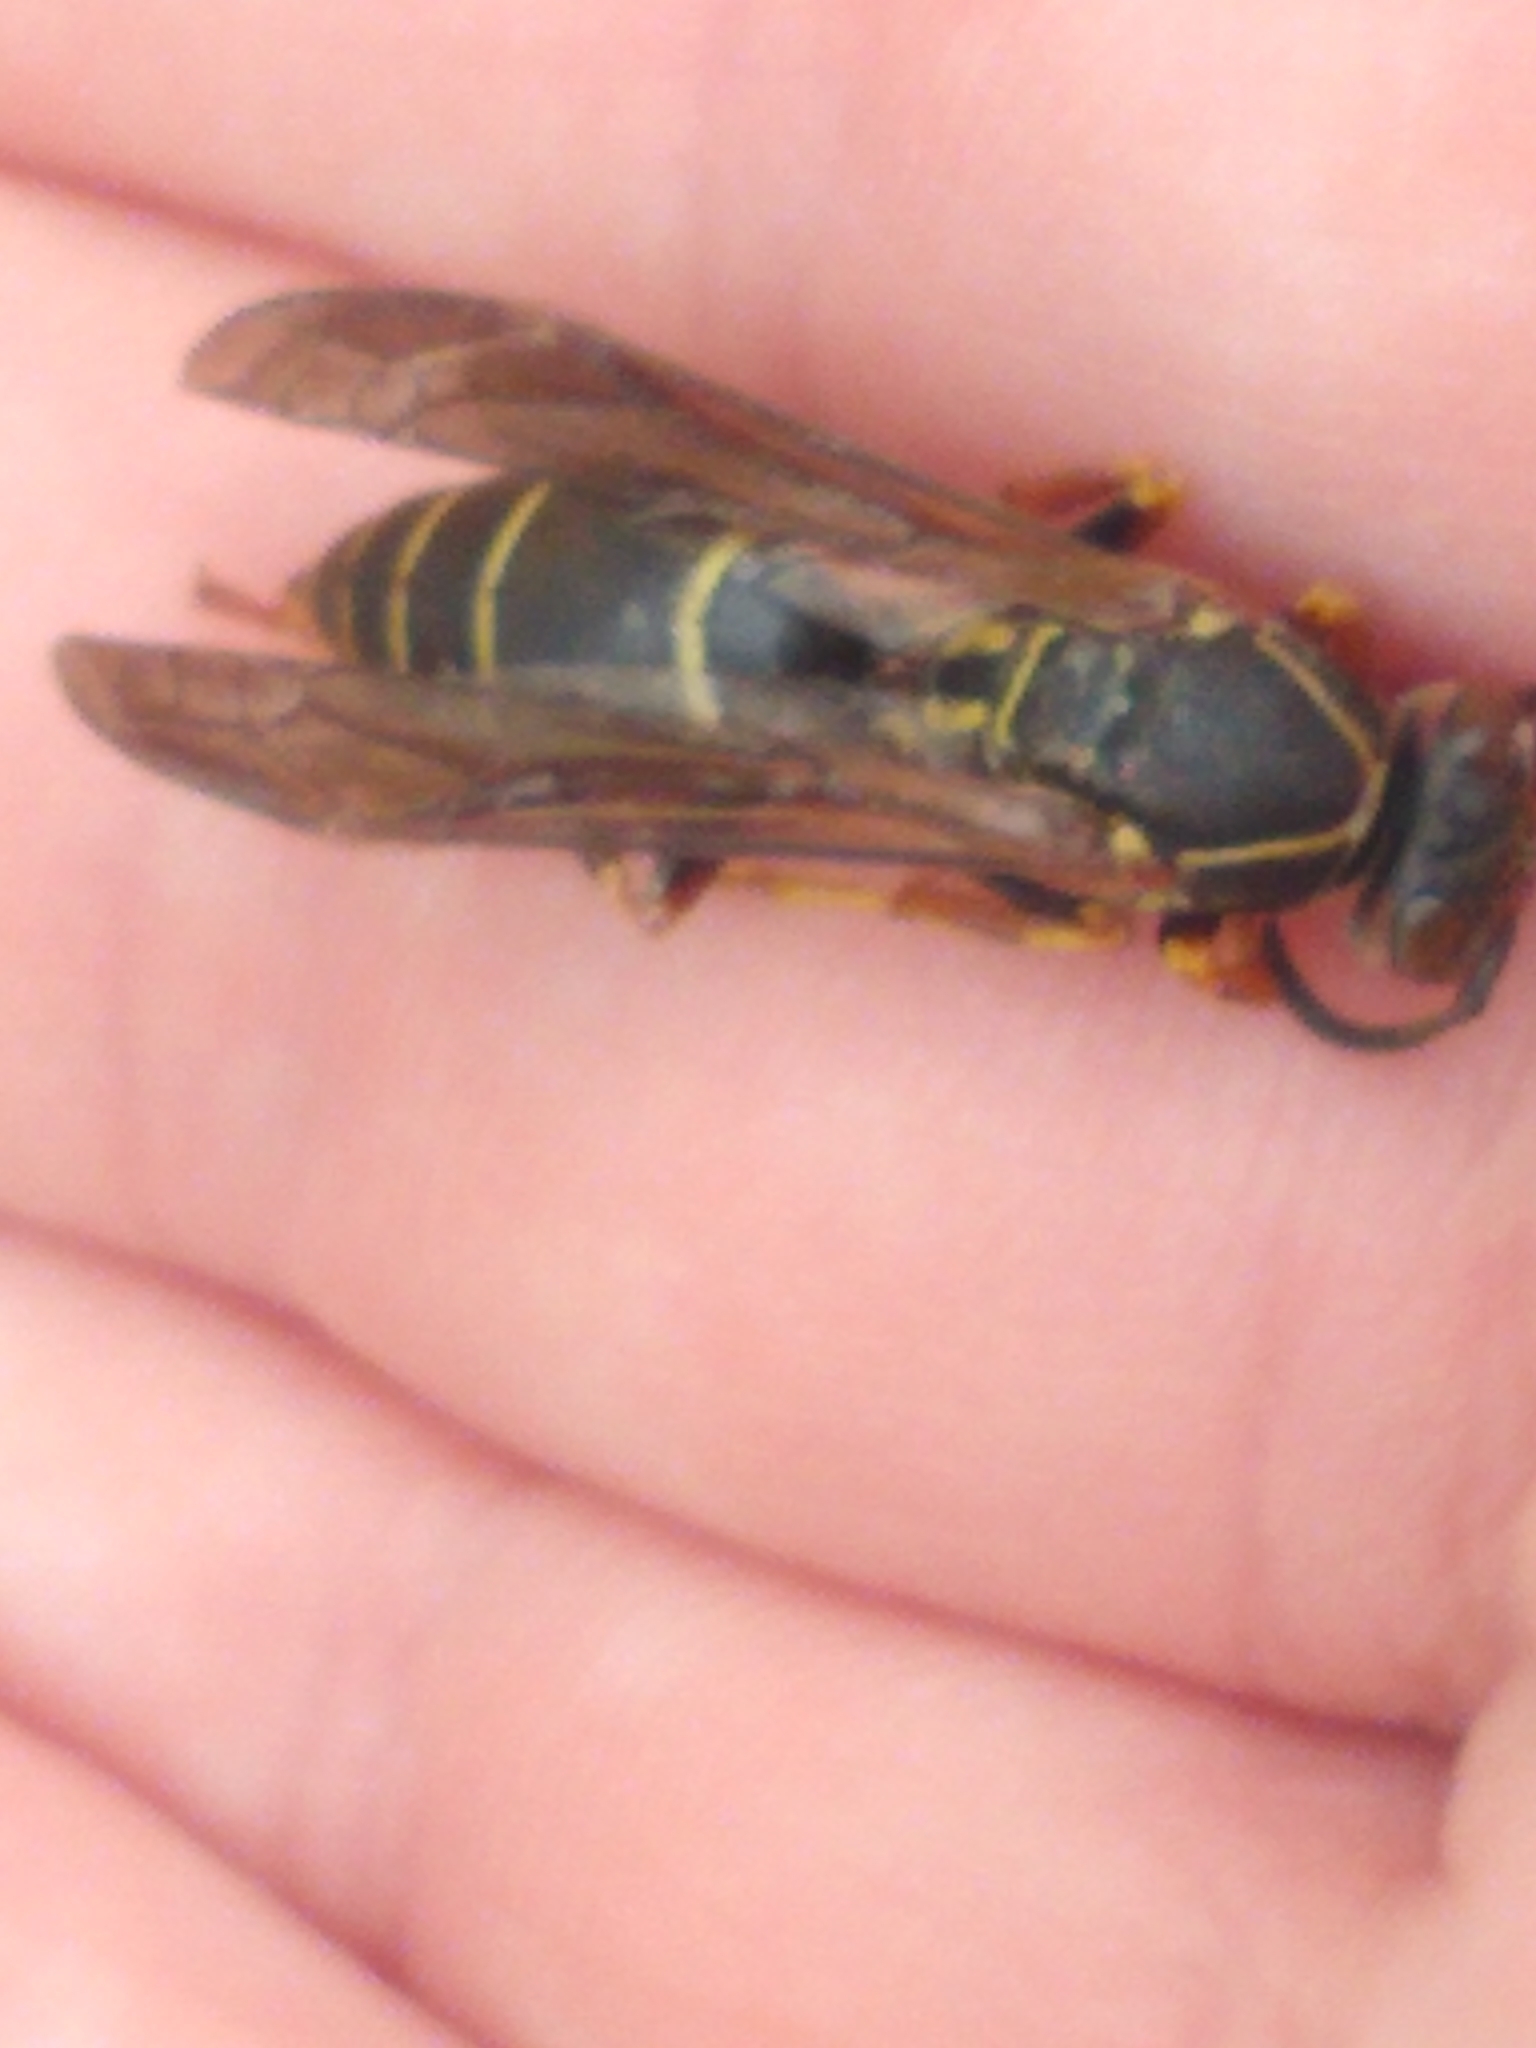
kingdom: Animalia
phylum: Arthropoda
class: Insecta
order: Hymenoptera
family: Eumenidae
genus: Polistes
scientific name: Polistes fuscatus
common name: Dark paper wasp
